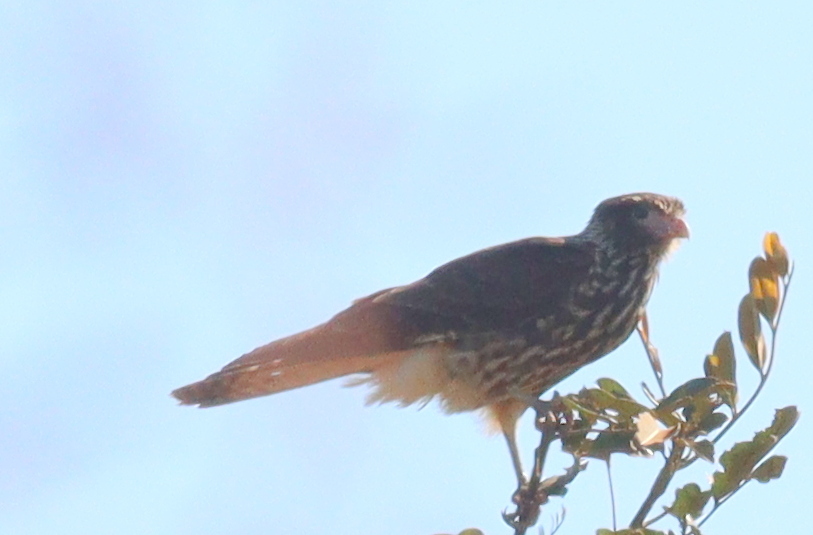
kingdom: Animalia
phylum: Chordata
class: Aves
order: Falconiformes
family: Falconidae
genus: Daptrius
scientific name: Daptrius
